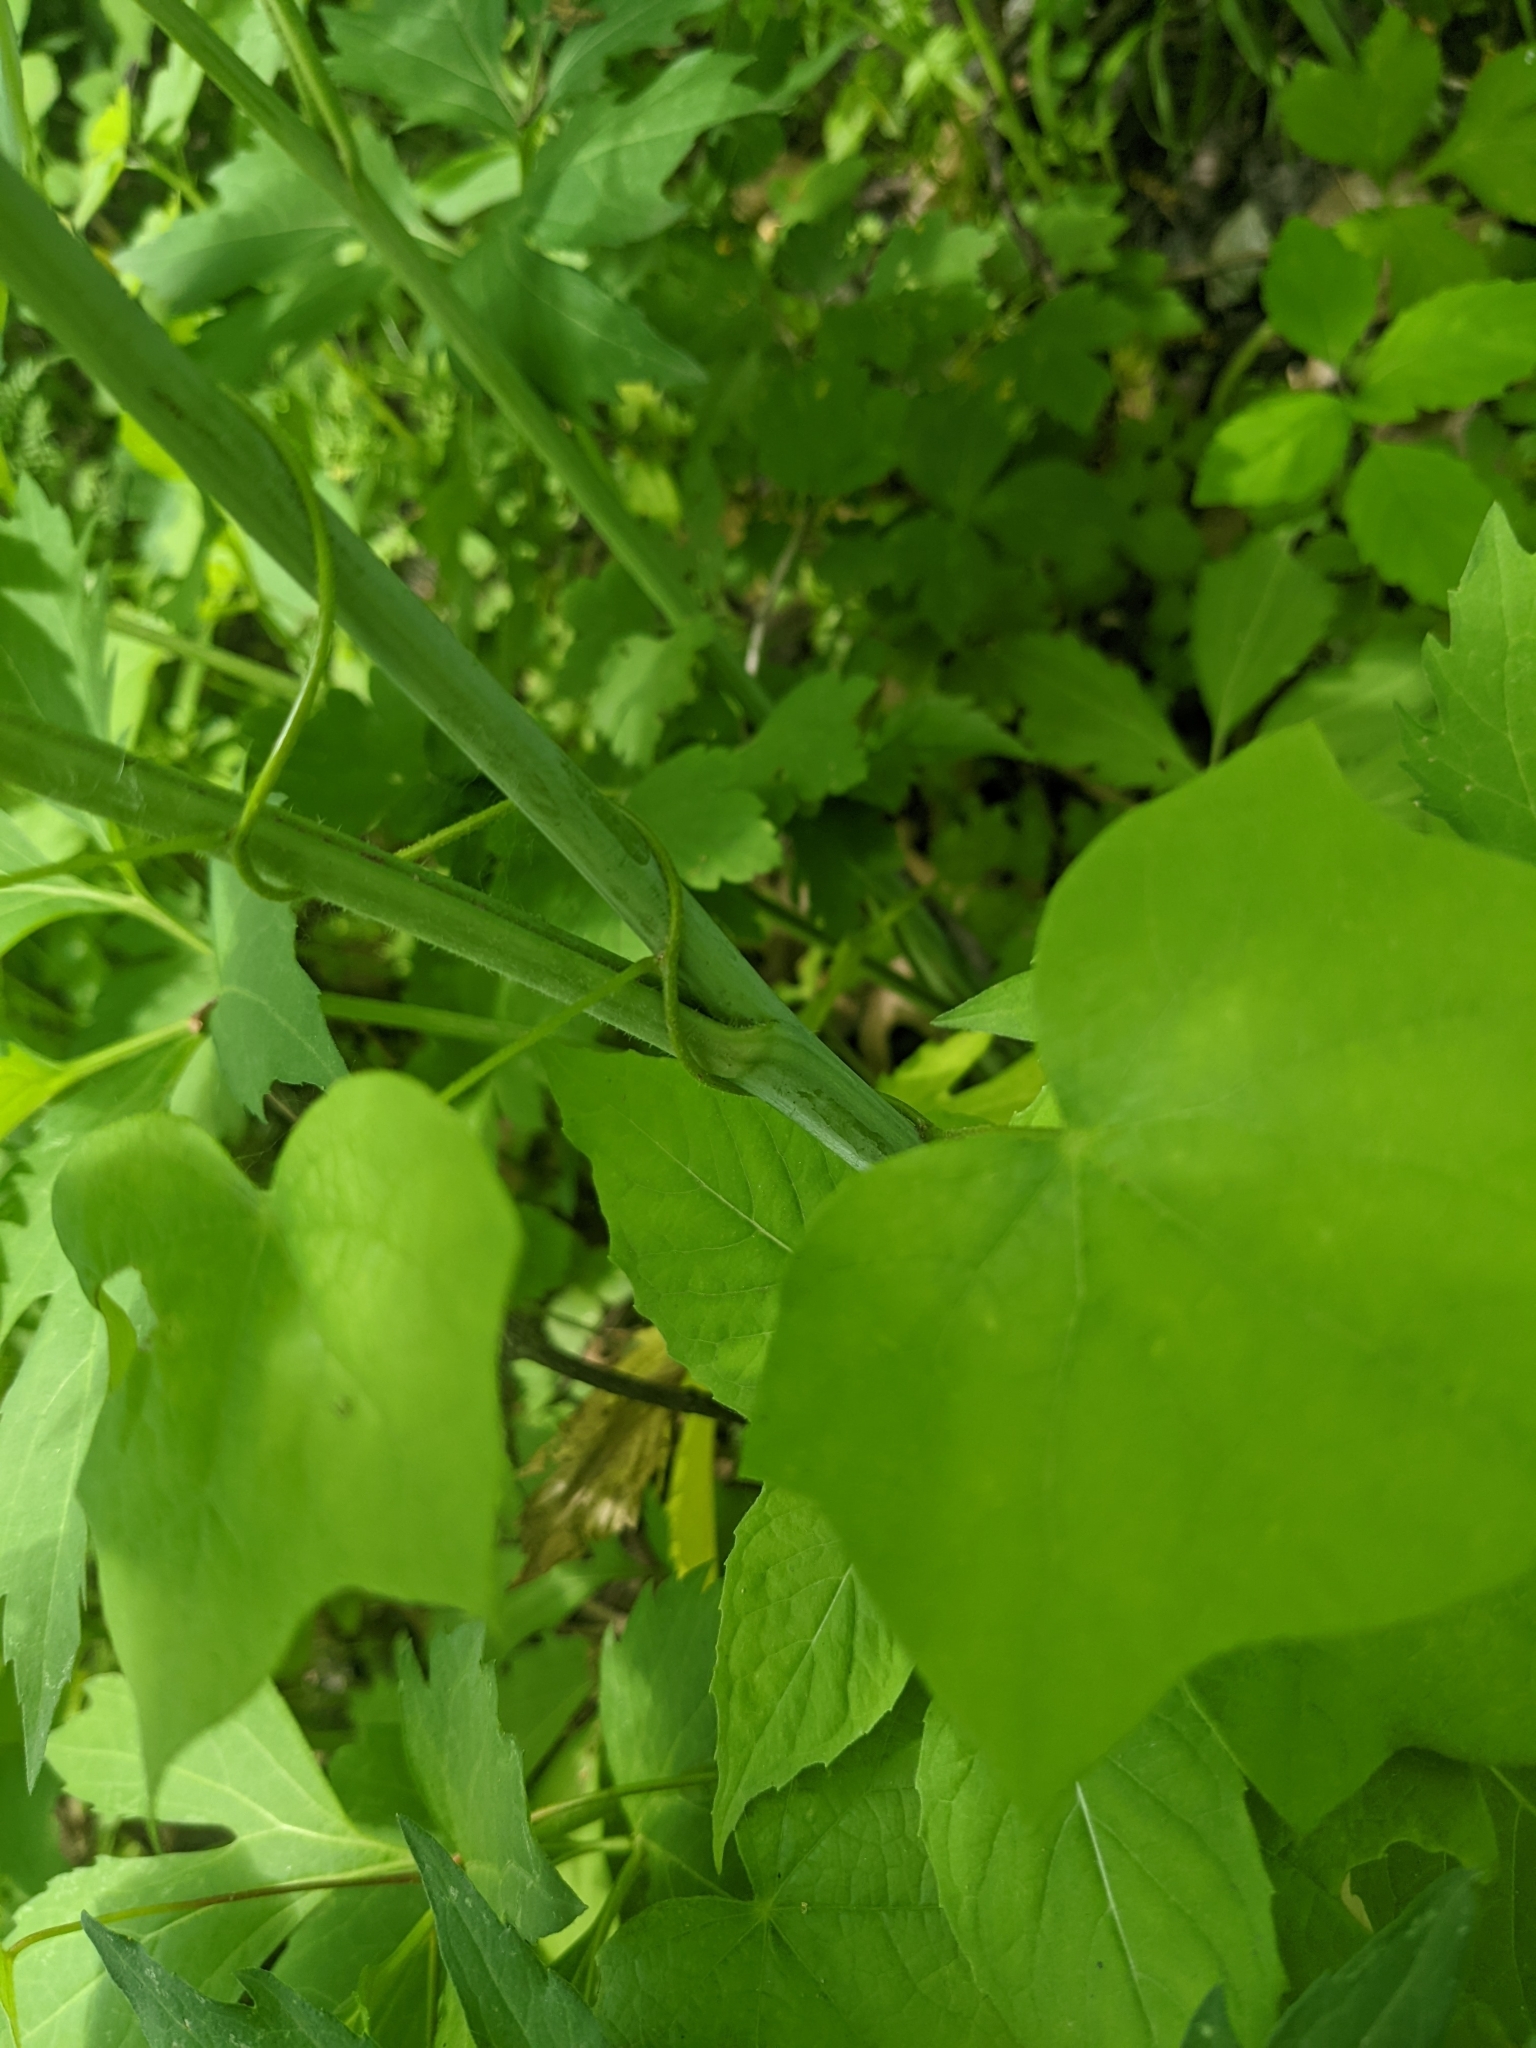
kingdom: Plantae
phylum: Tracheophyta
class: Magnoliopsida
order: Asterales
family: Asteraceae
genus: Rudbeckia
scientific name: Rudbeckia laciniata
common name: Coneflower
